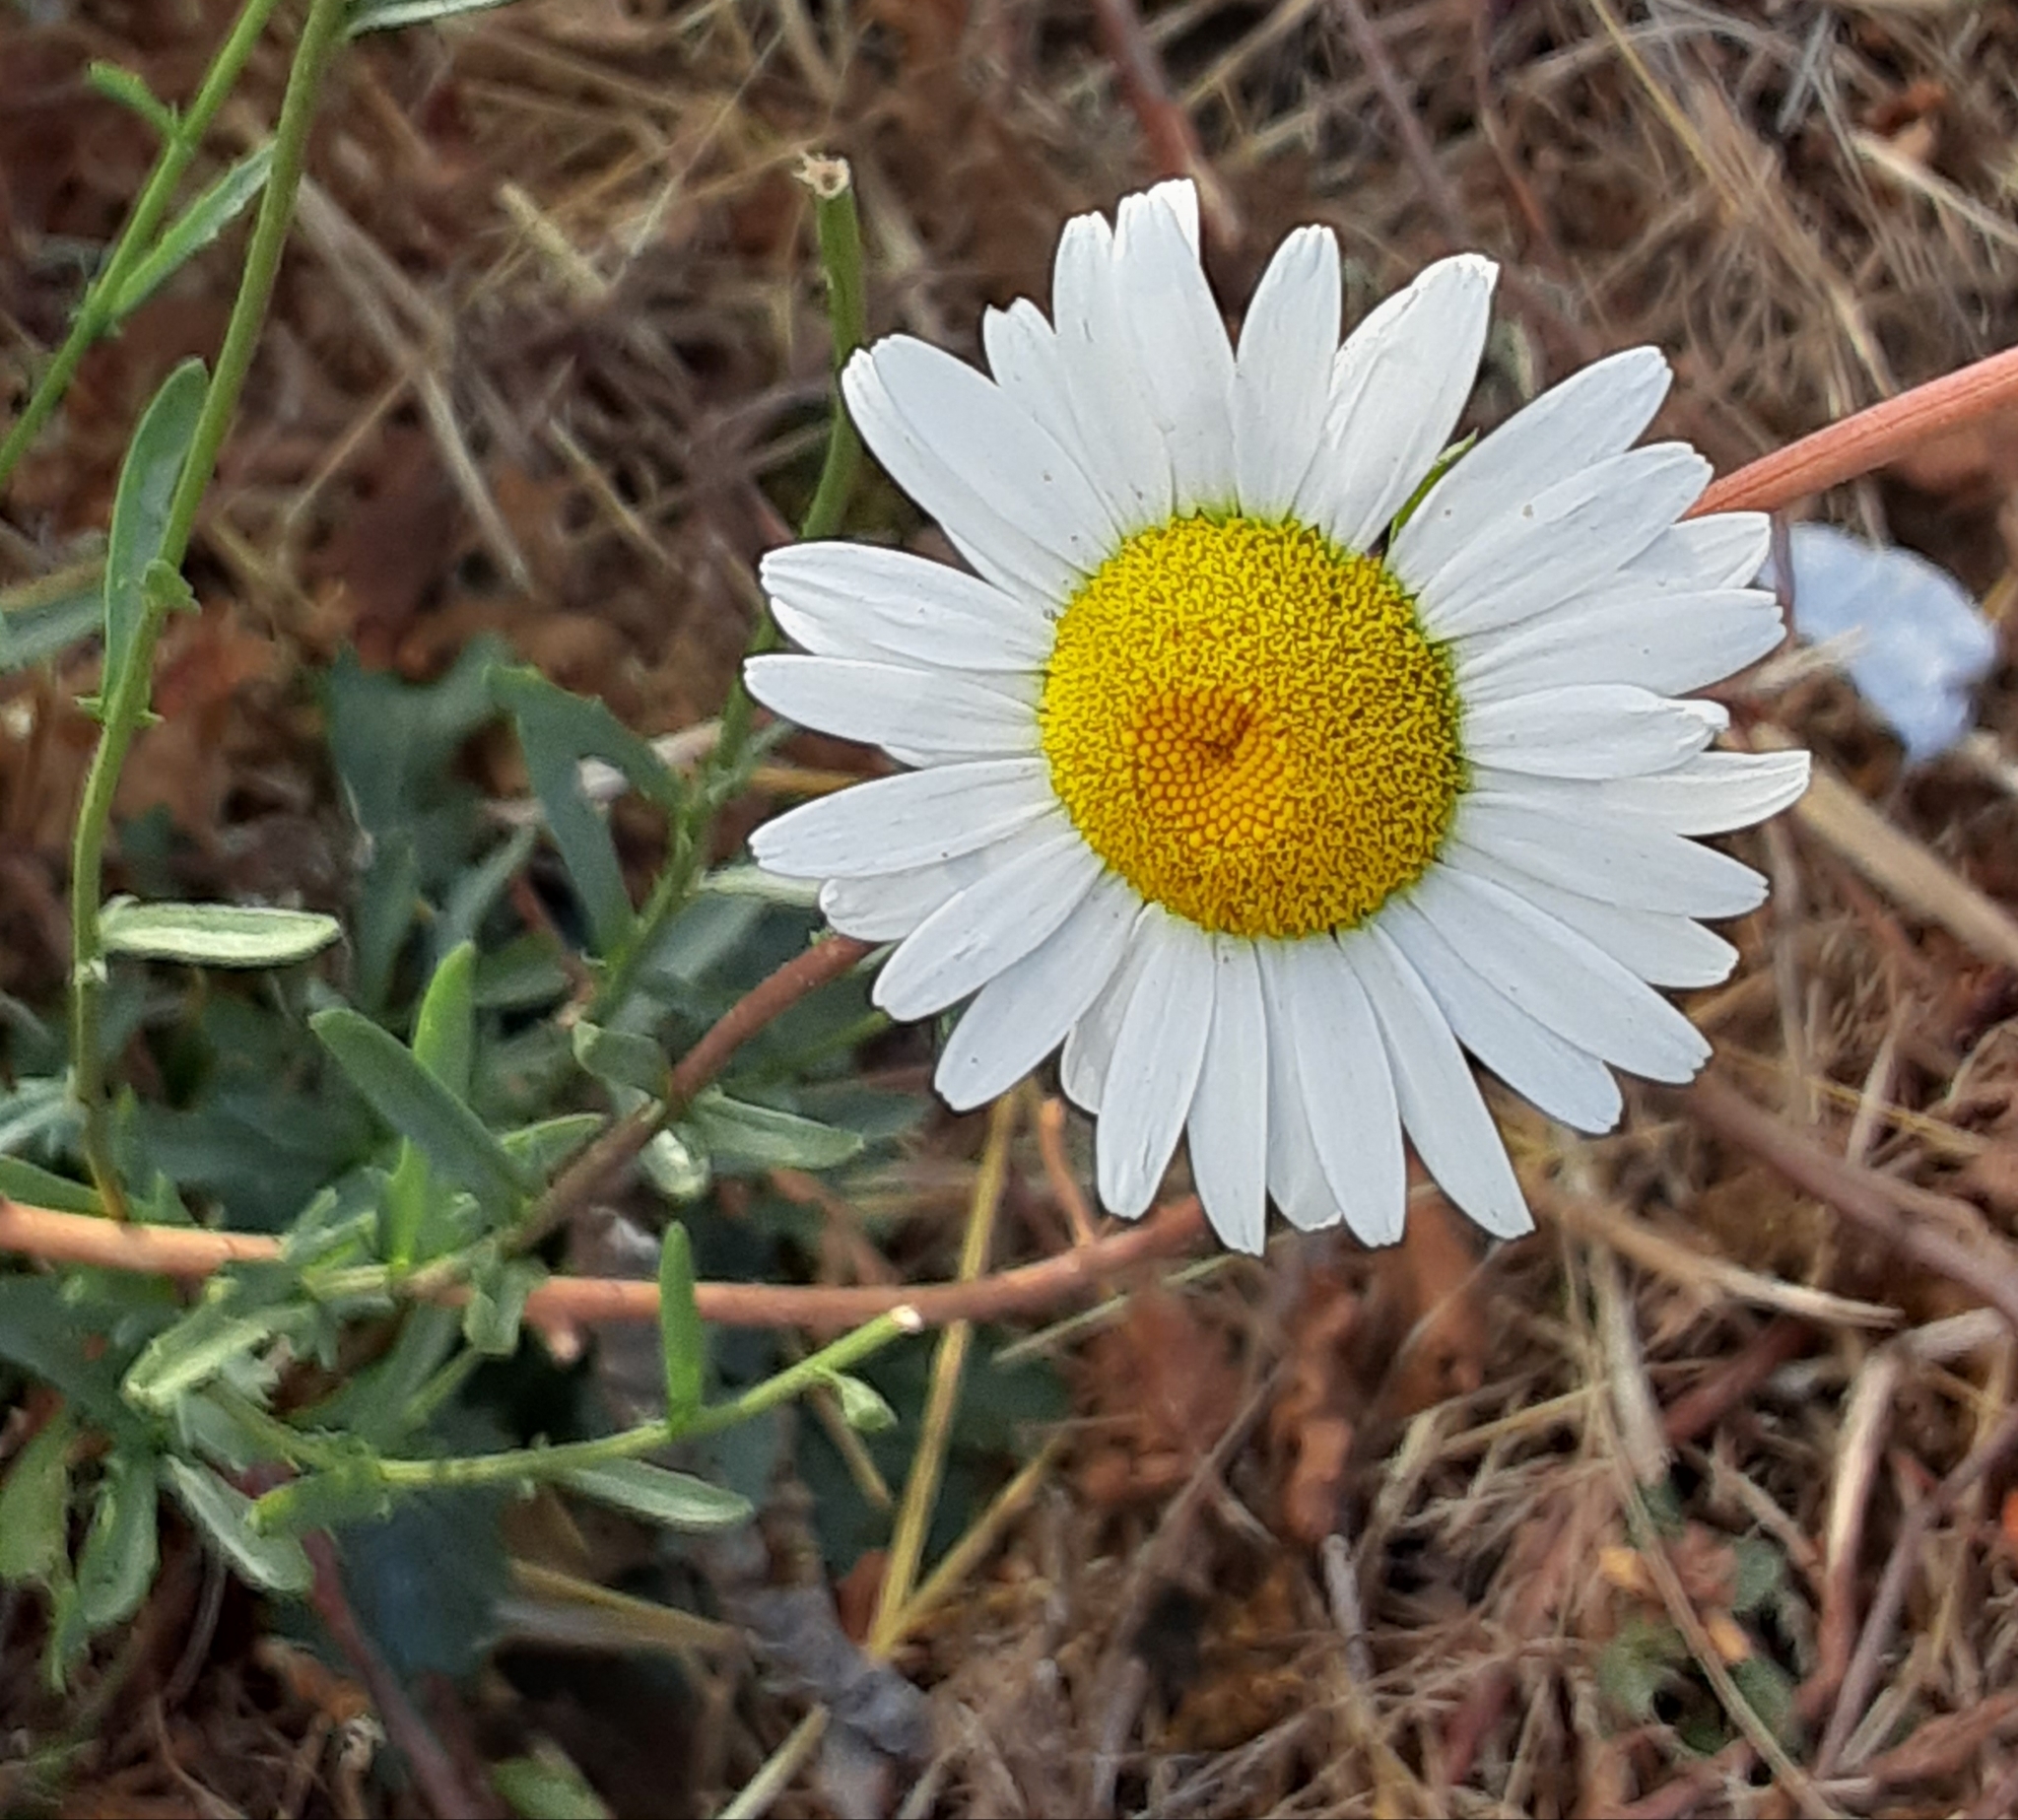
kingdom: Plantae
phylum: Tracheophyta
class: Magnoliopsida
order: Asterales
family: Asteraceae
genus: Leucanthemum
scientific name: Leucanthemum vulgare
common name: Oxeye daisy
